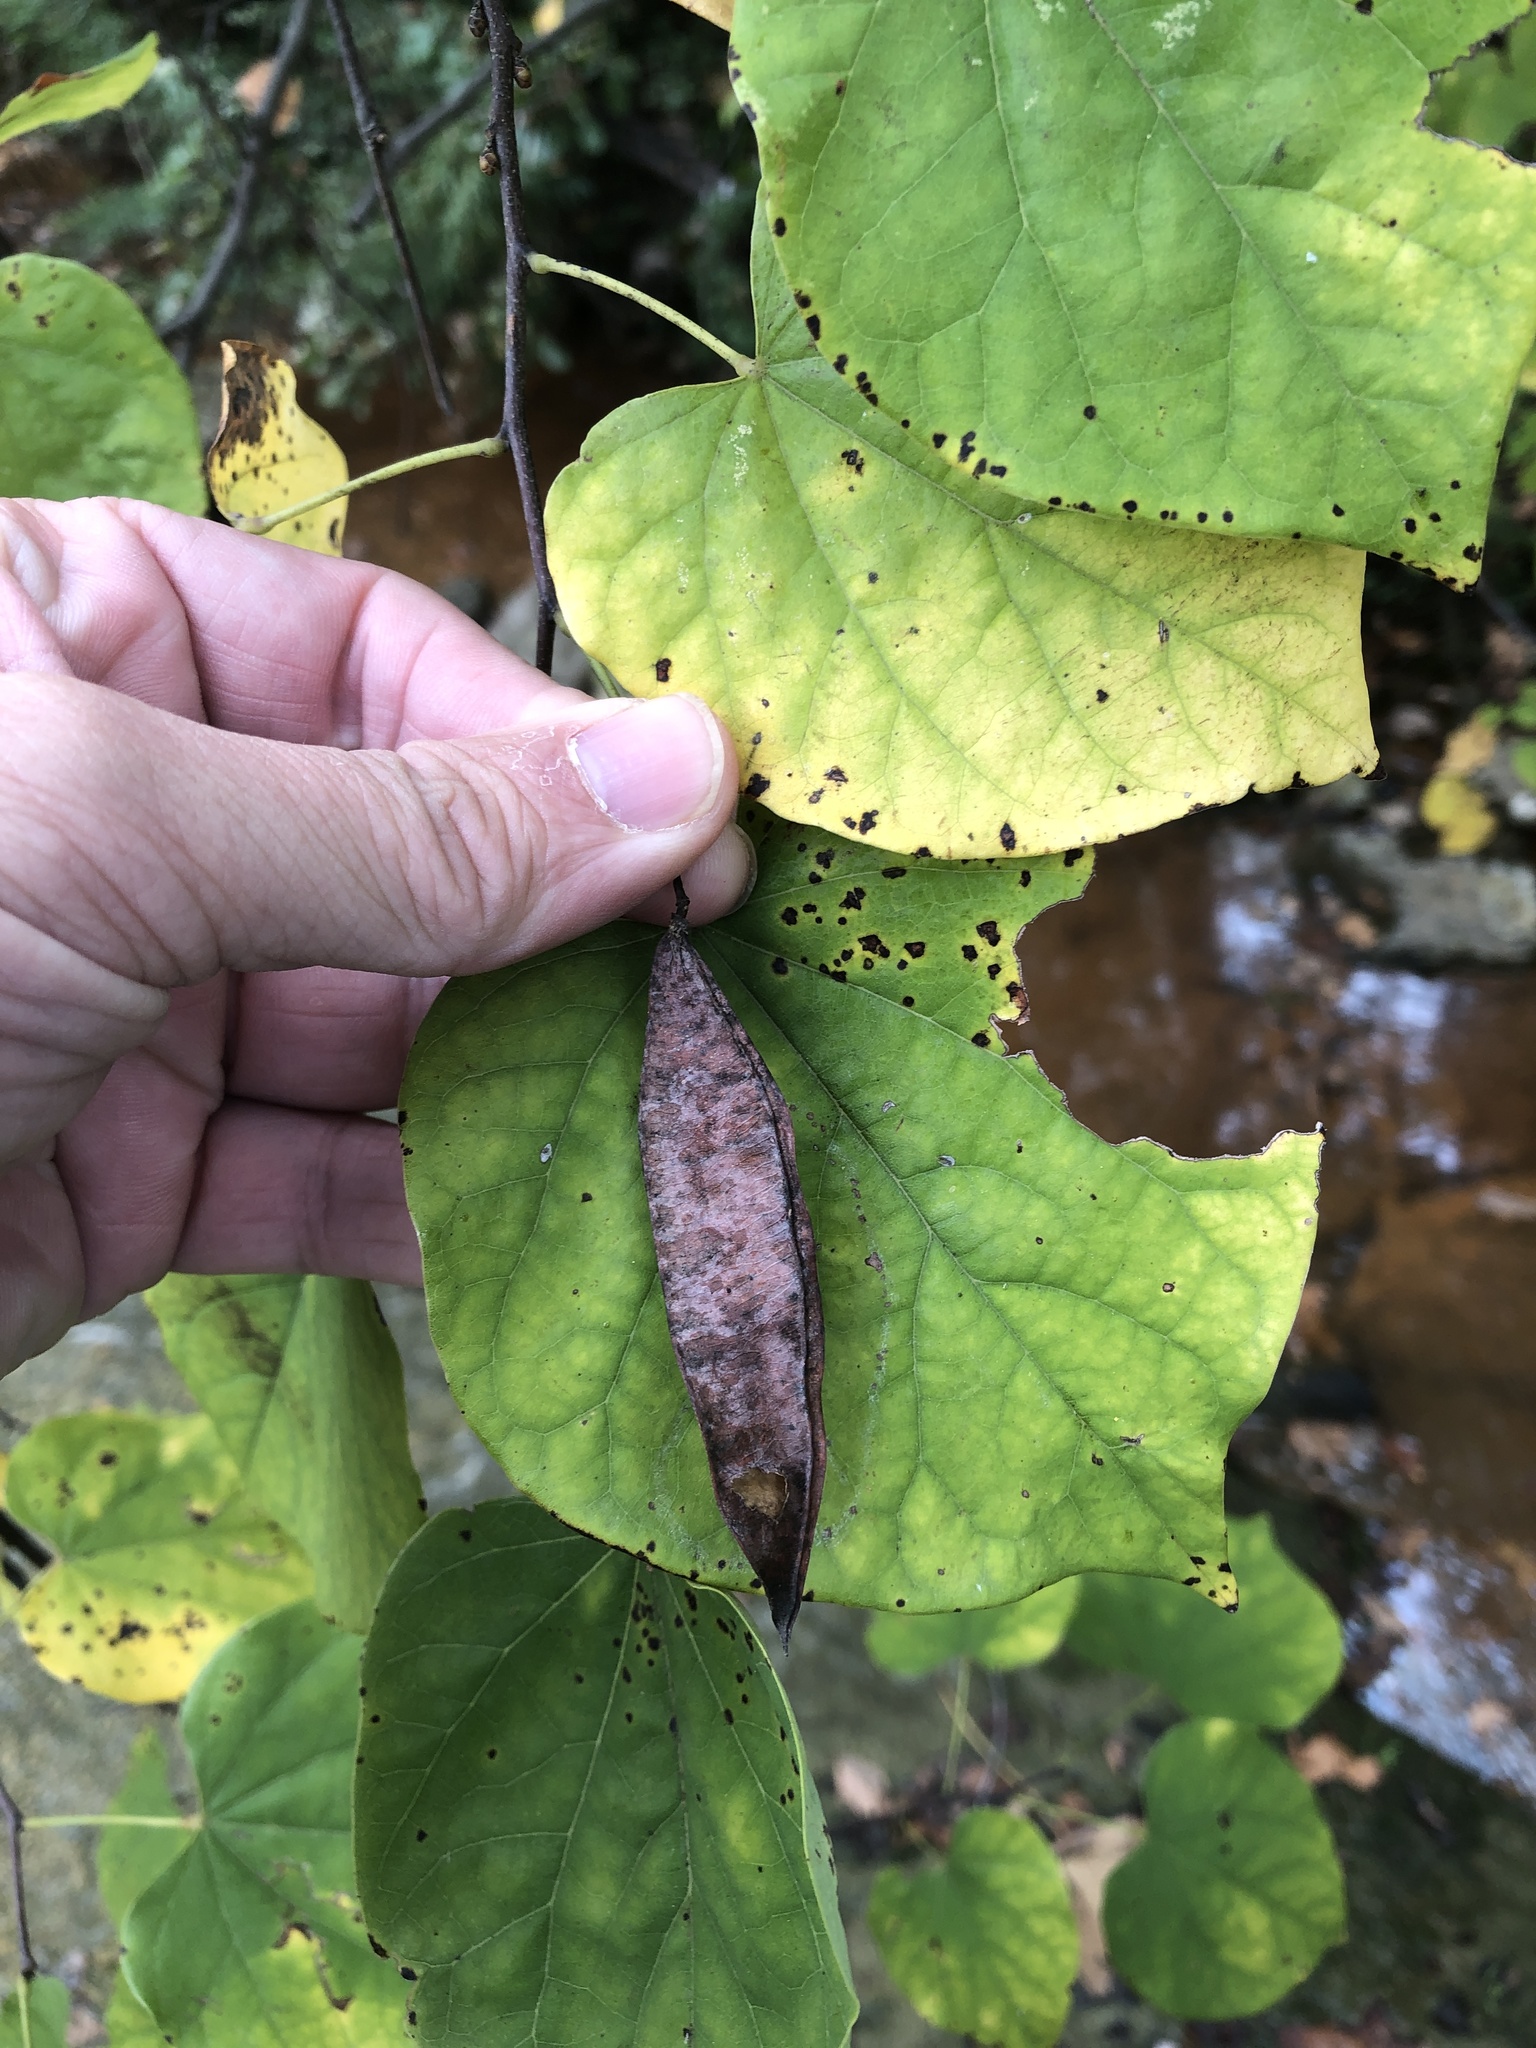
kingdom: Plantae
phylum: Tracheophyta
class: Magnoliopsida
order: Fabales
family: Fabaceae
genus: Cercis
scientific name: Cercis canadensis
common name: Eastern redbud
